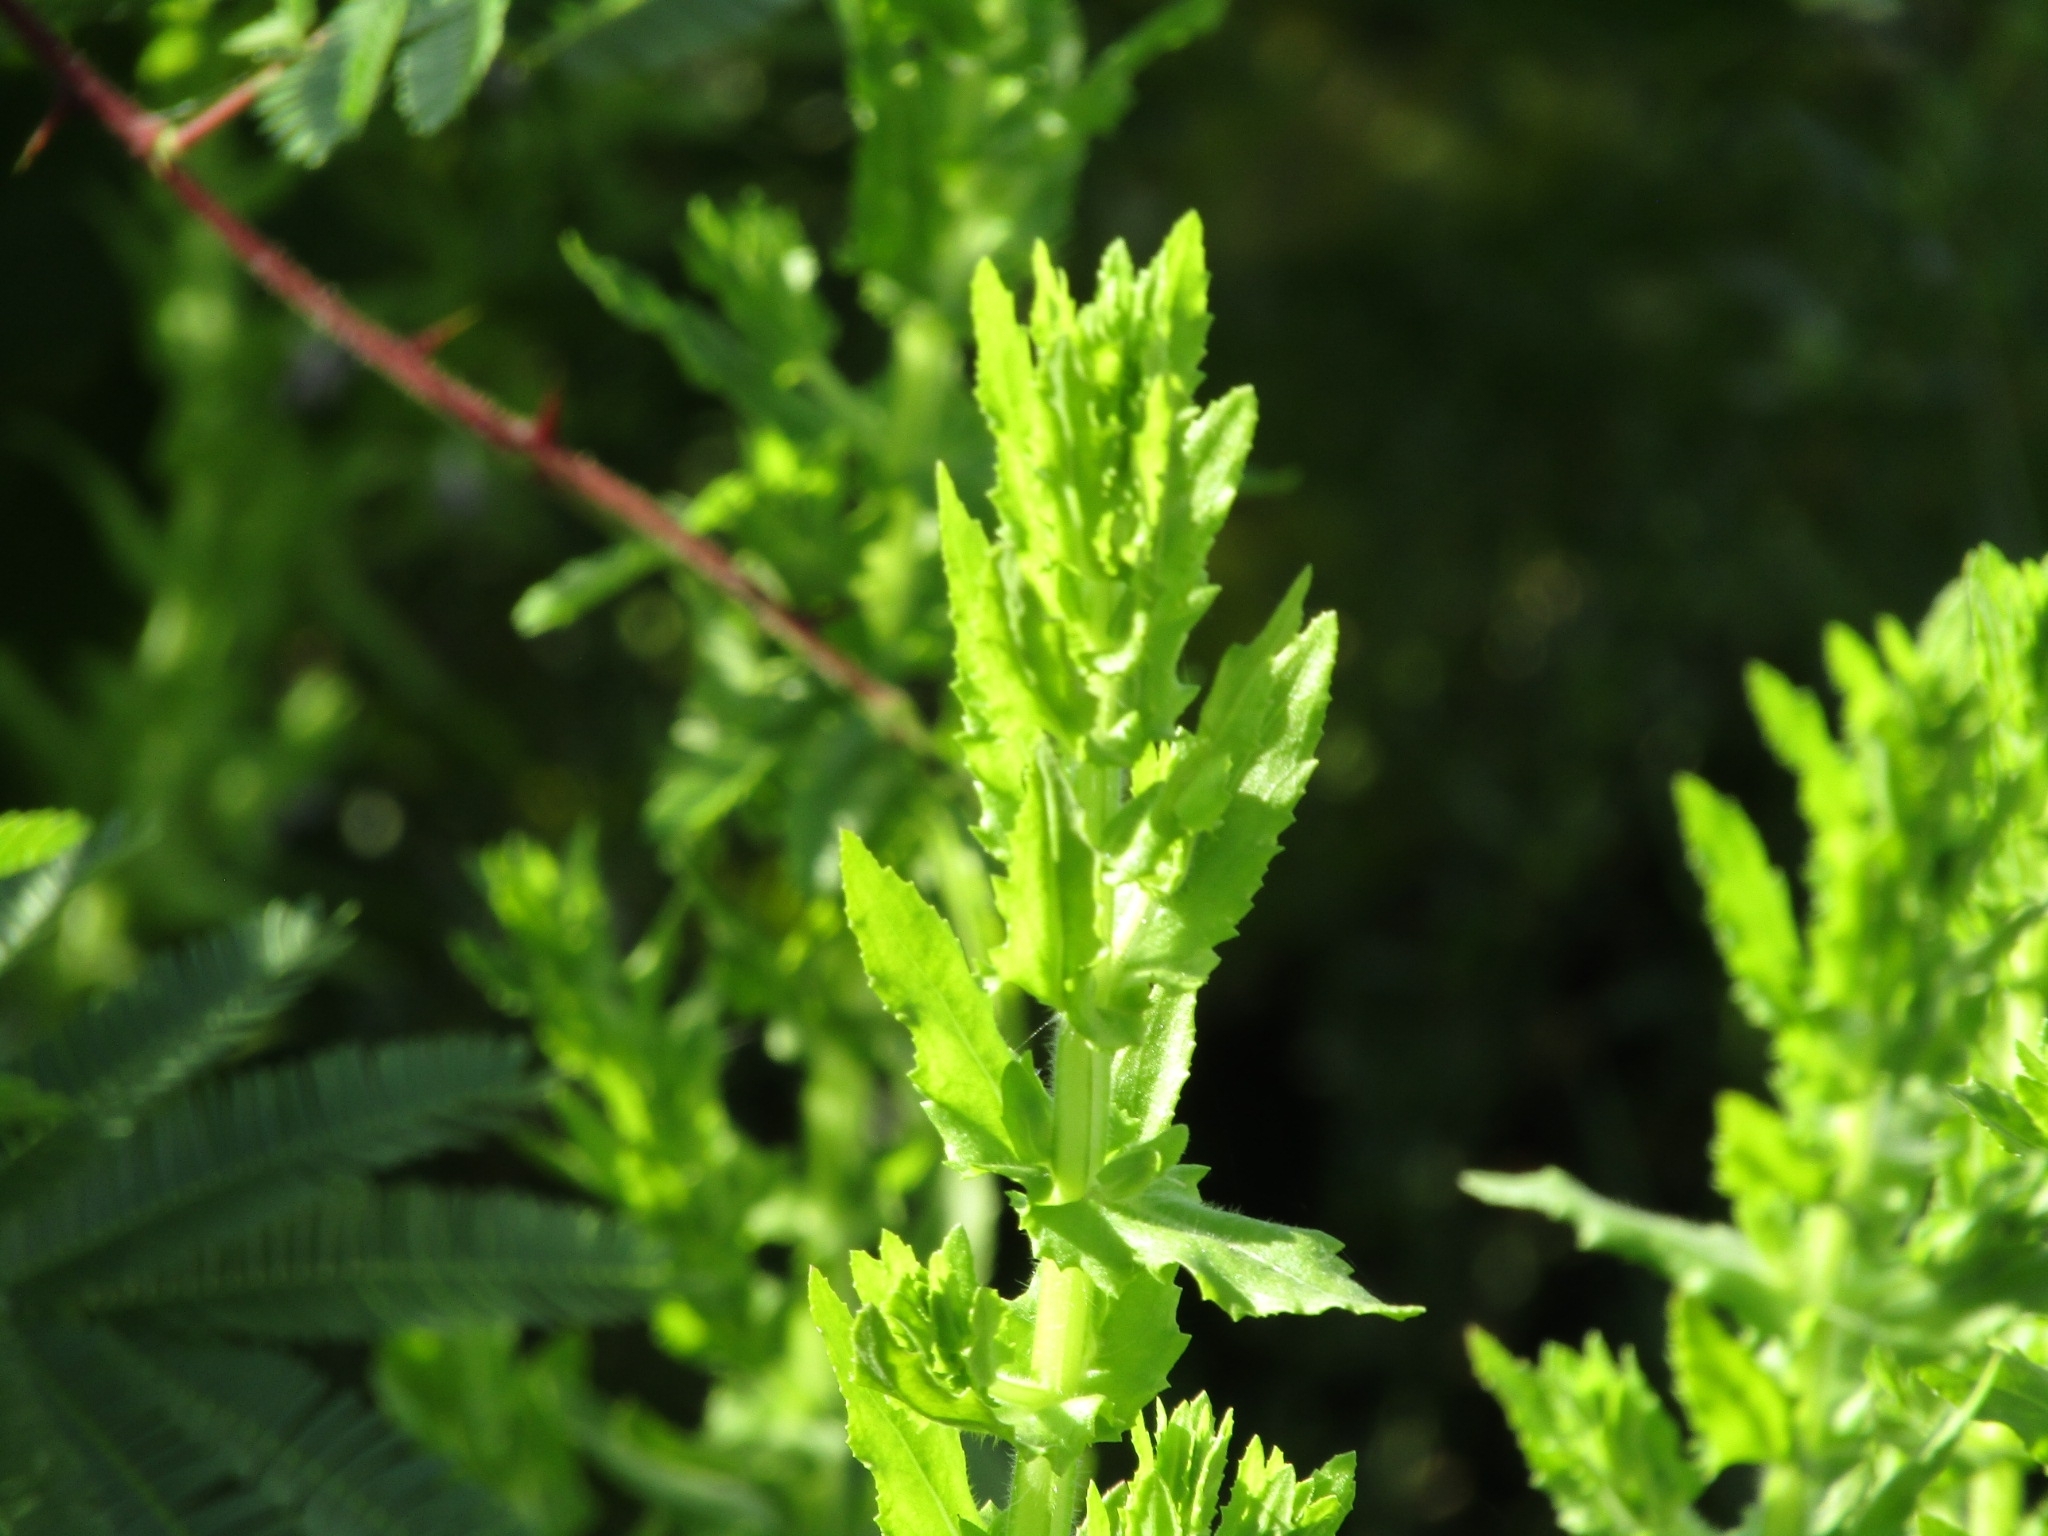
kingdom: Plantae
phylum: Tracheophyta
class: Magnoliopsida
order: Lamiales
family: Plantaginaceae
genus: Stemodia
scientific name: Stemodia maritima
